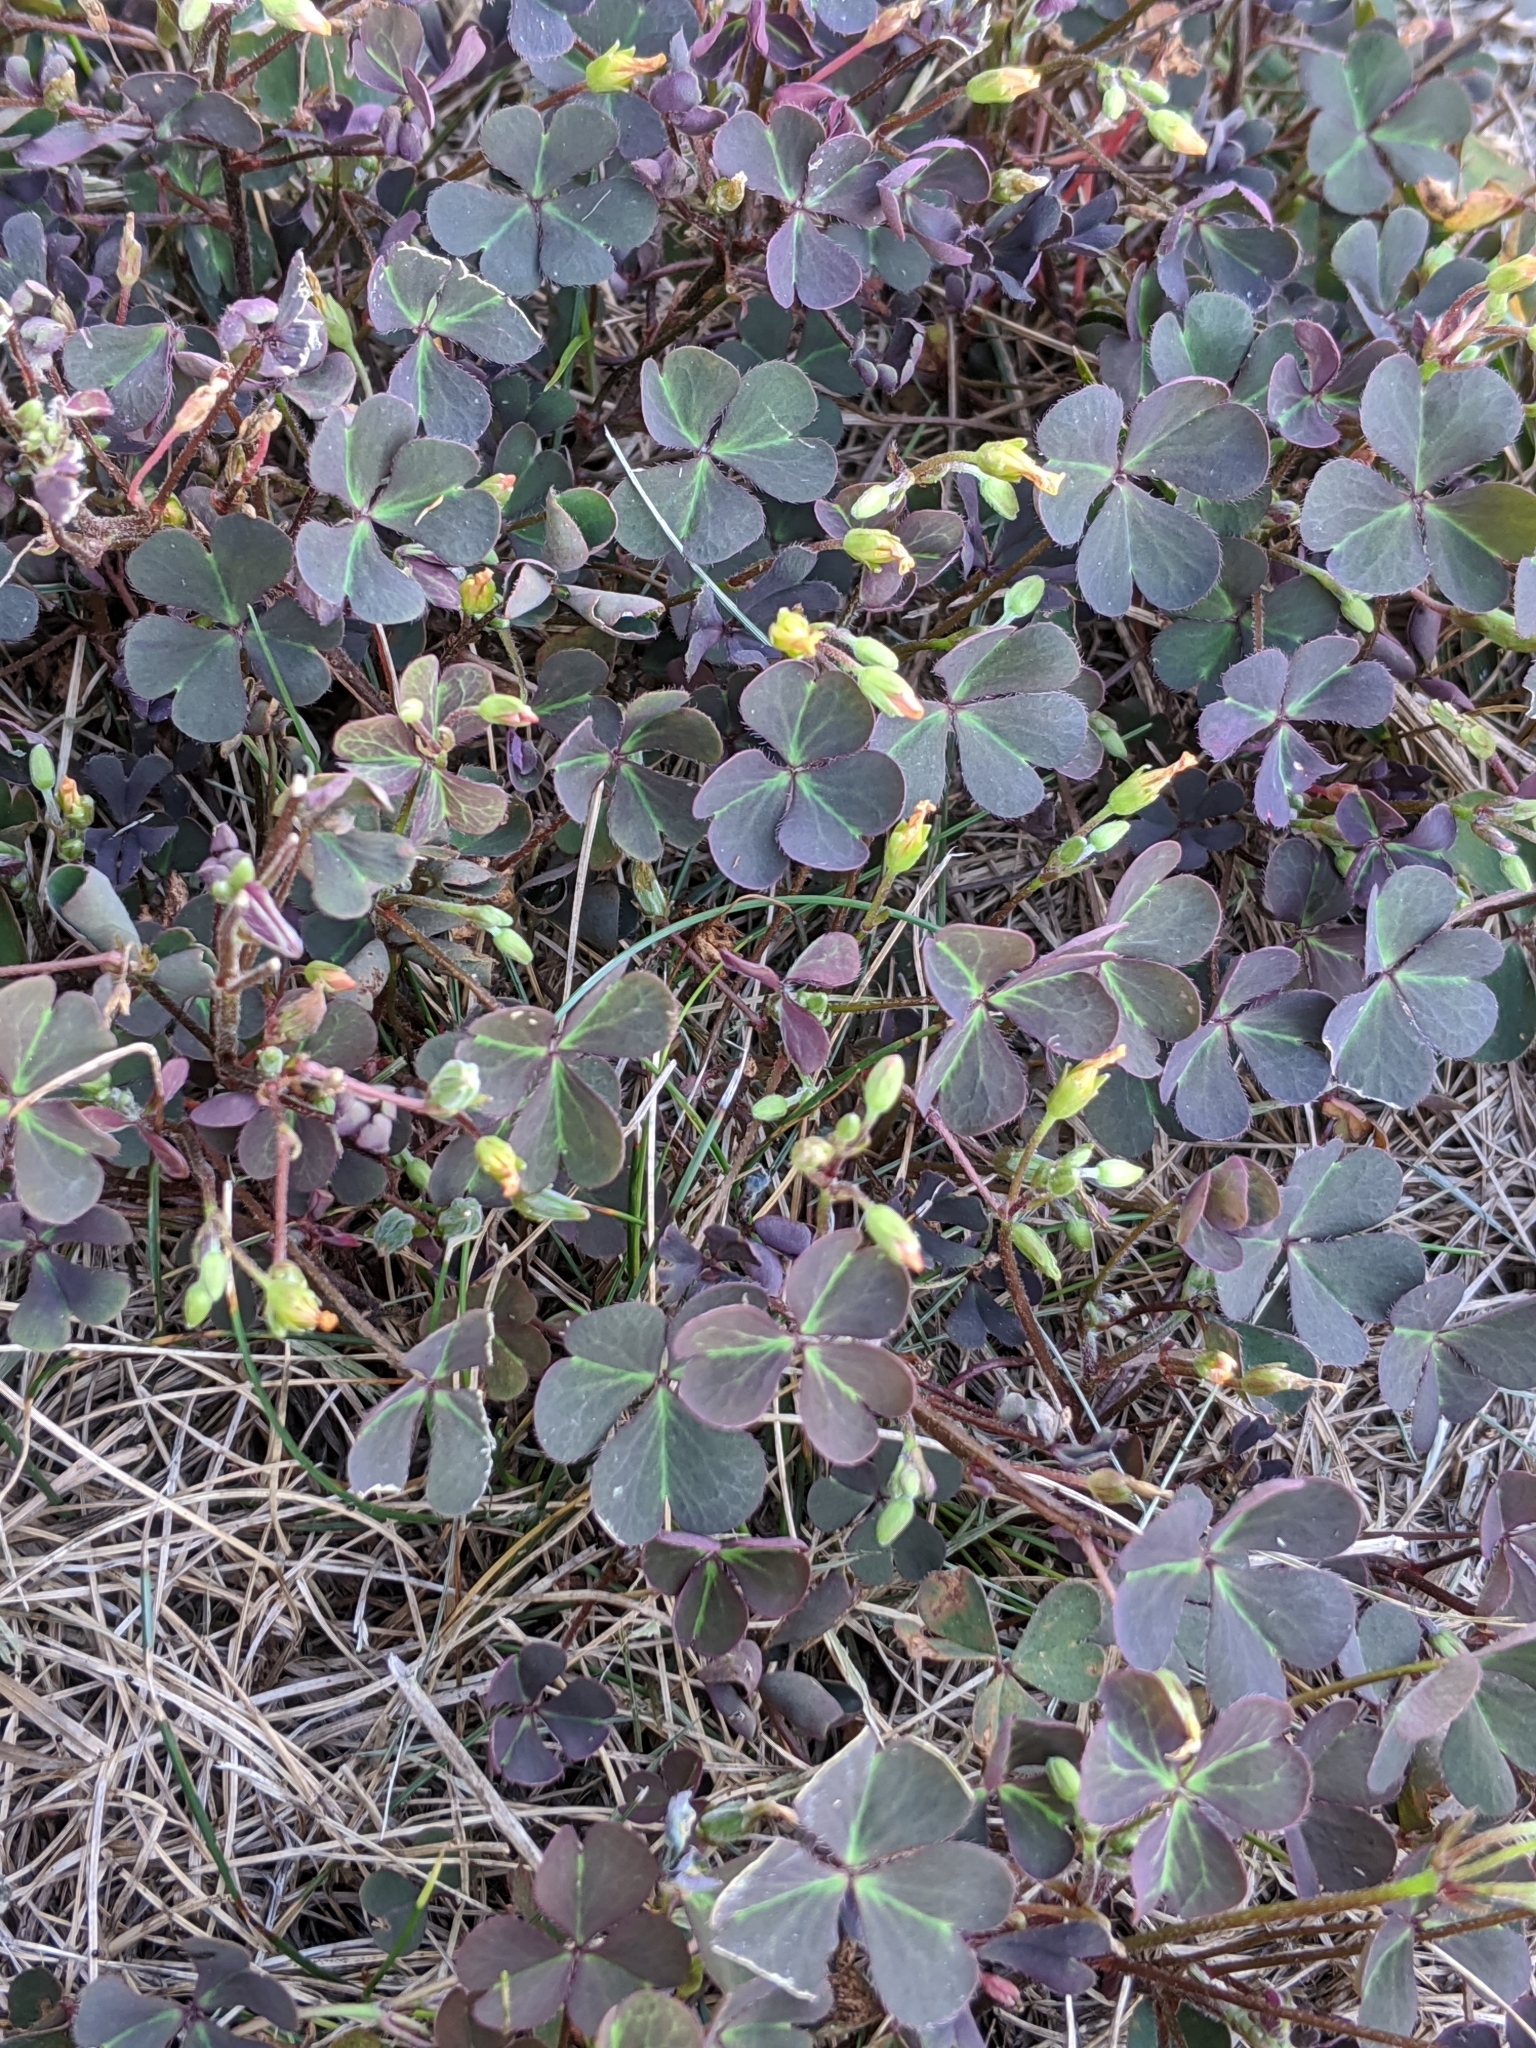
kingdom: Plantae
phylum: Tracheophyta
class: Magnoliopsida
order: Oxalidales
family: Oxalidaceae
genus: Oxalis
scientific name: Oxalis corniculata
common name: Procumbent yellow-sorrel
